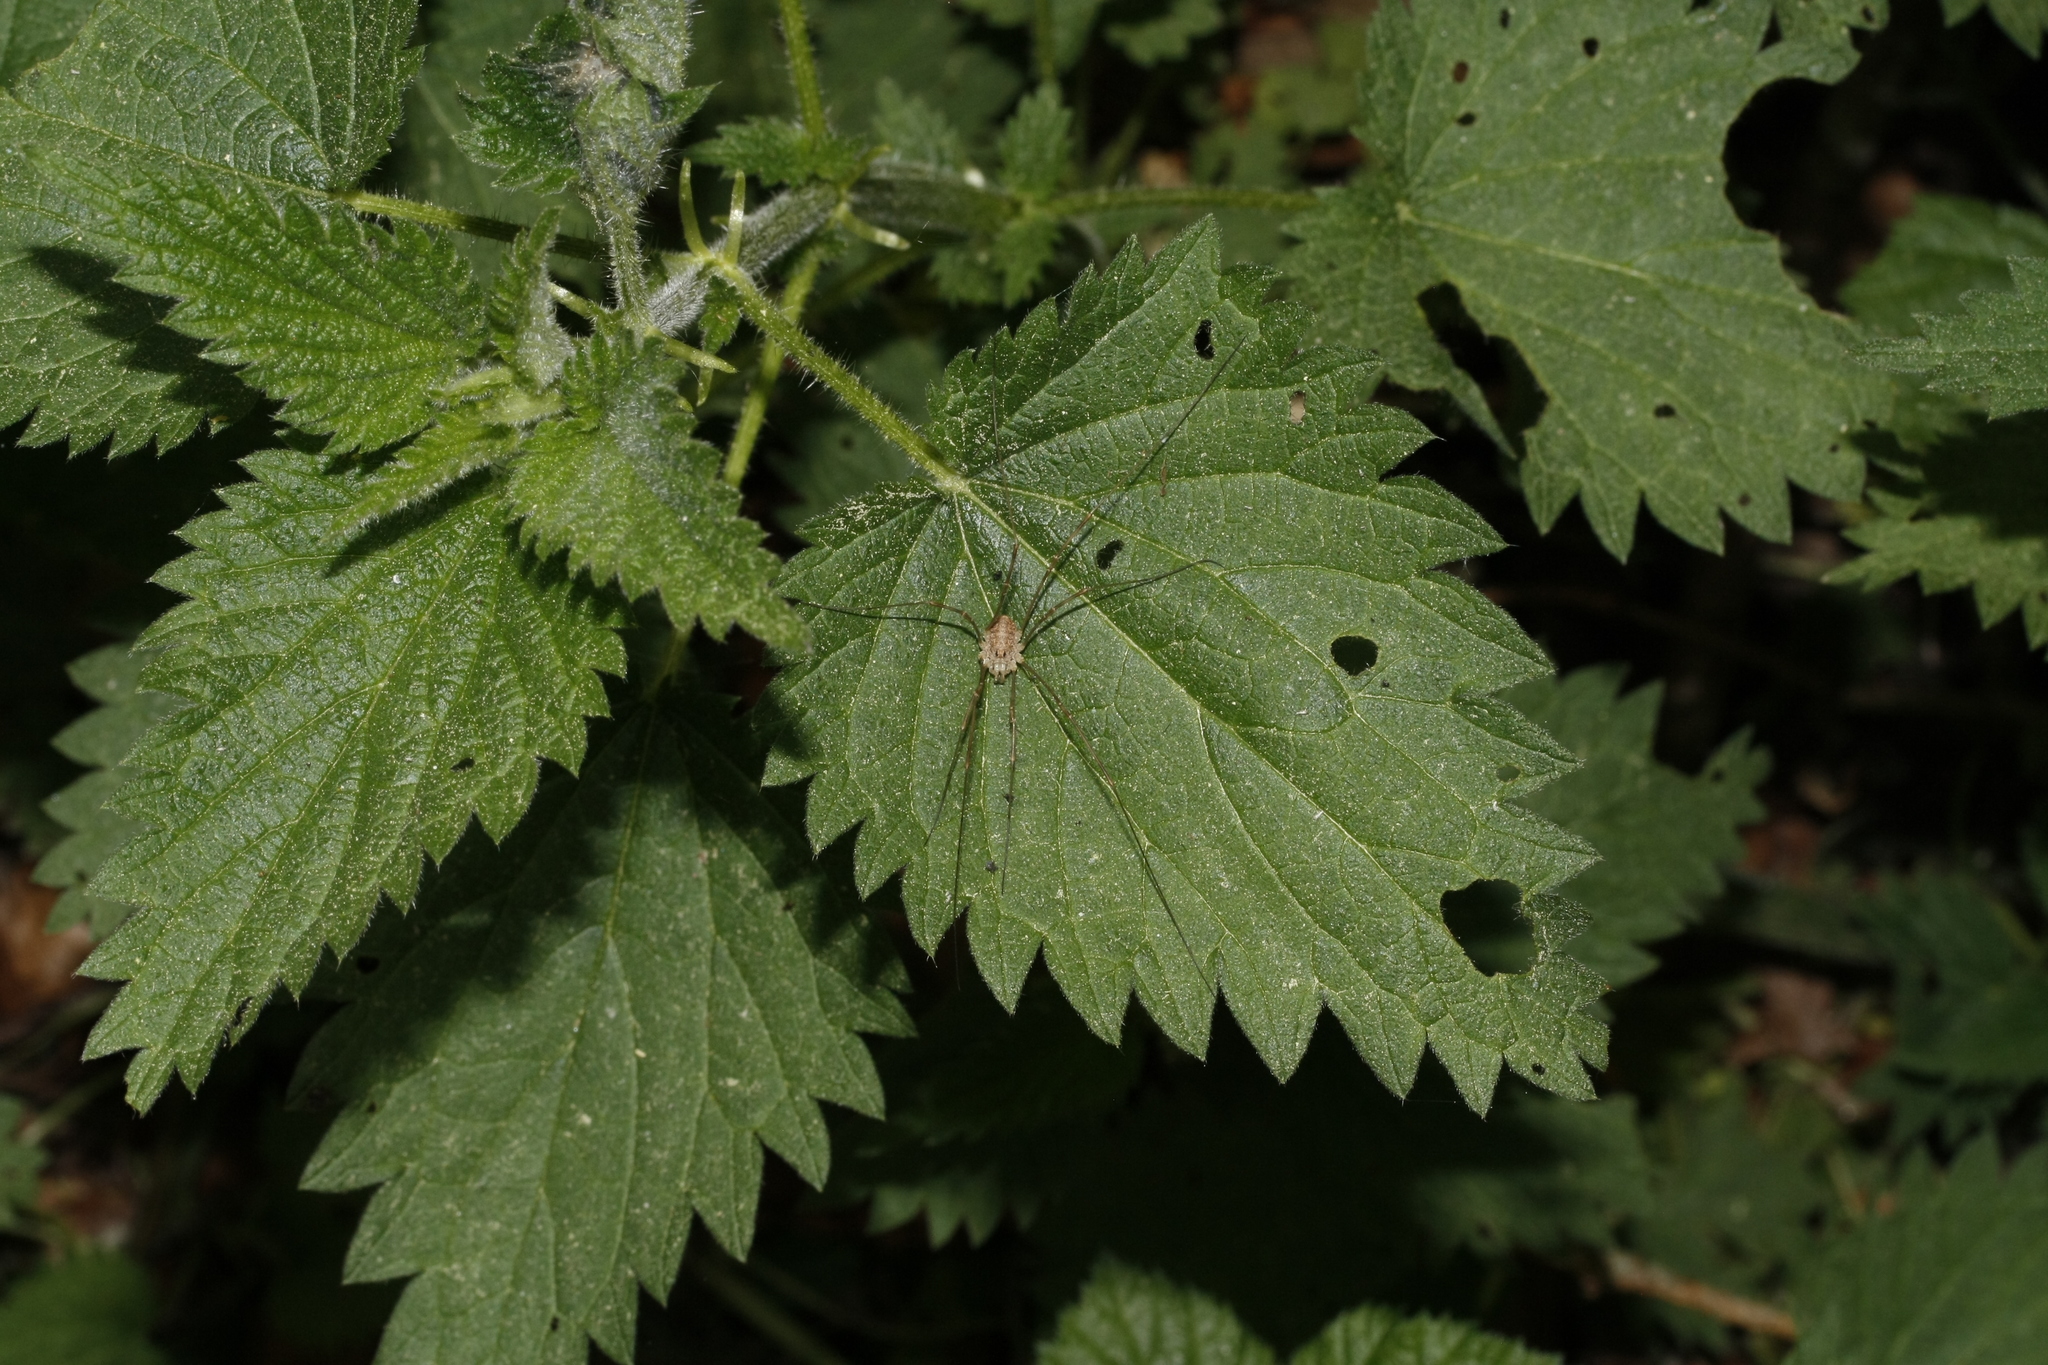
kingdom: Animalia
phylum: Arthropoda
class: Arachnida
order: Opiliones
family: Phalangiidae
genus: Rilaena
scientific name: Rilaena triangularis
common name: Spring harvestman
